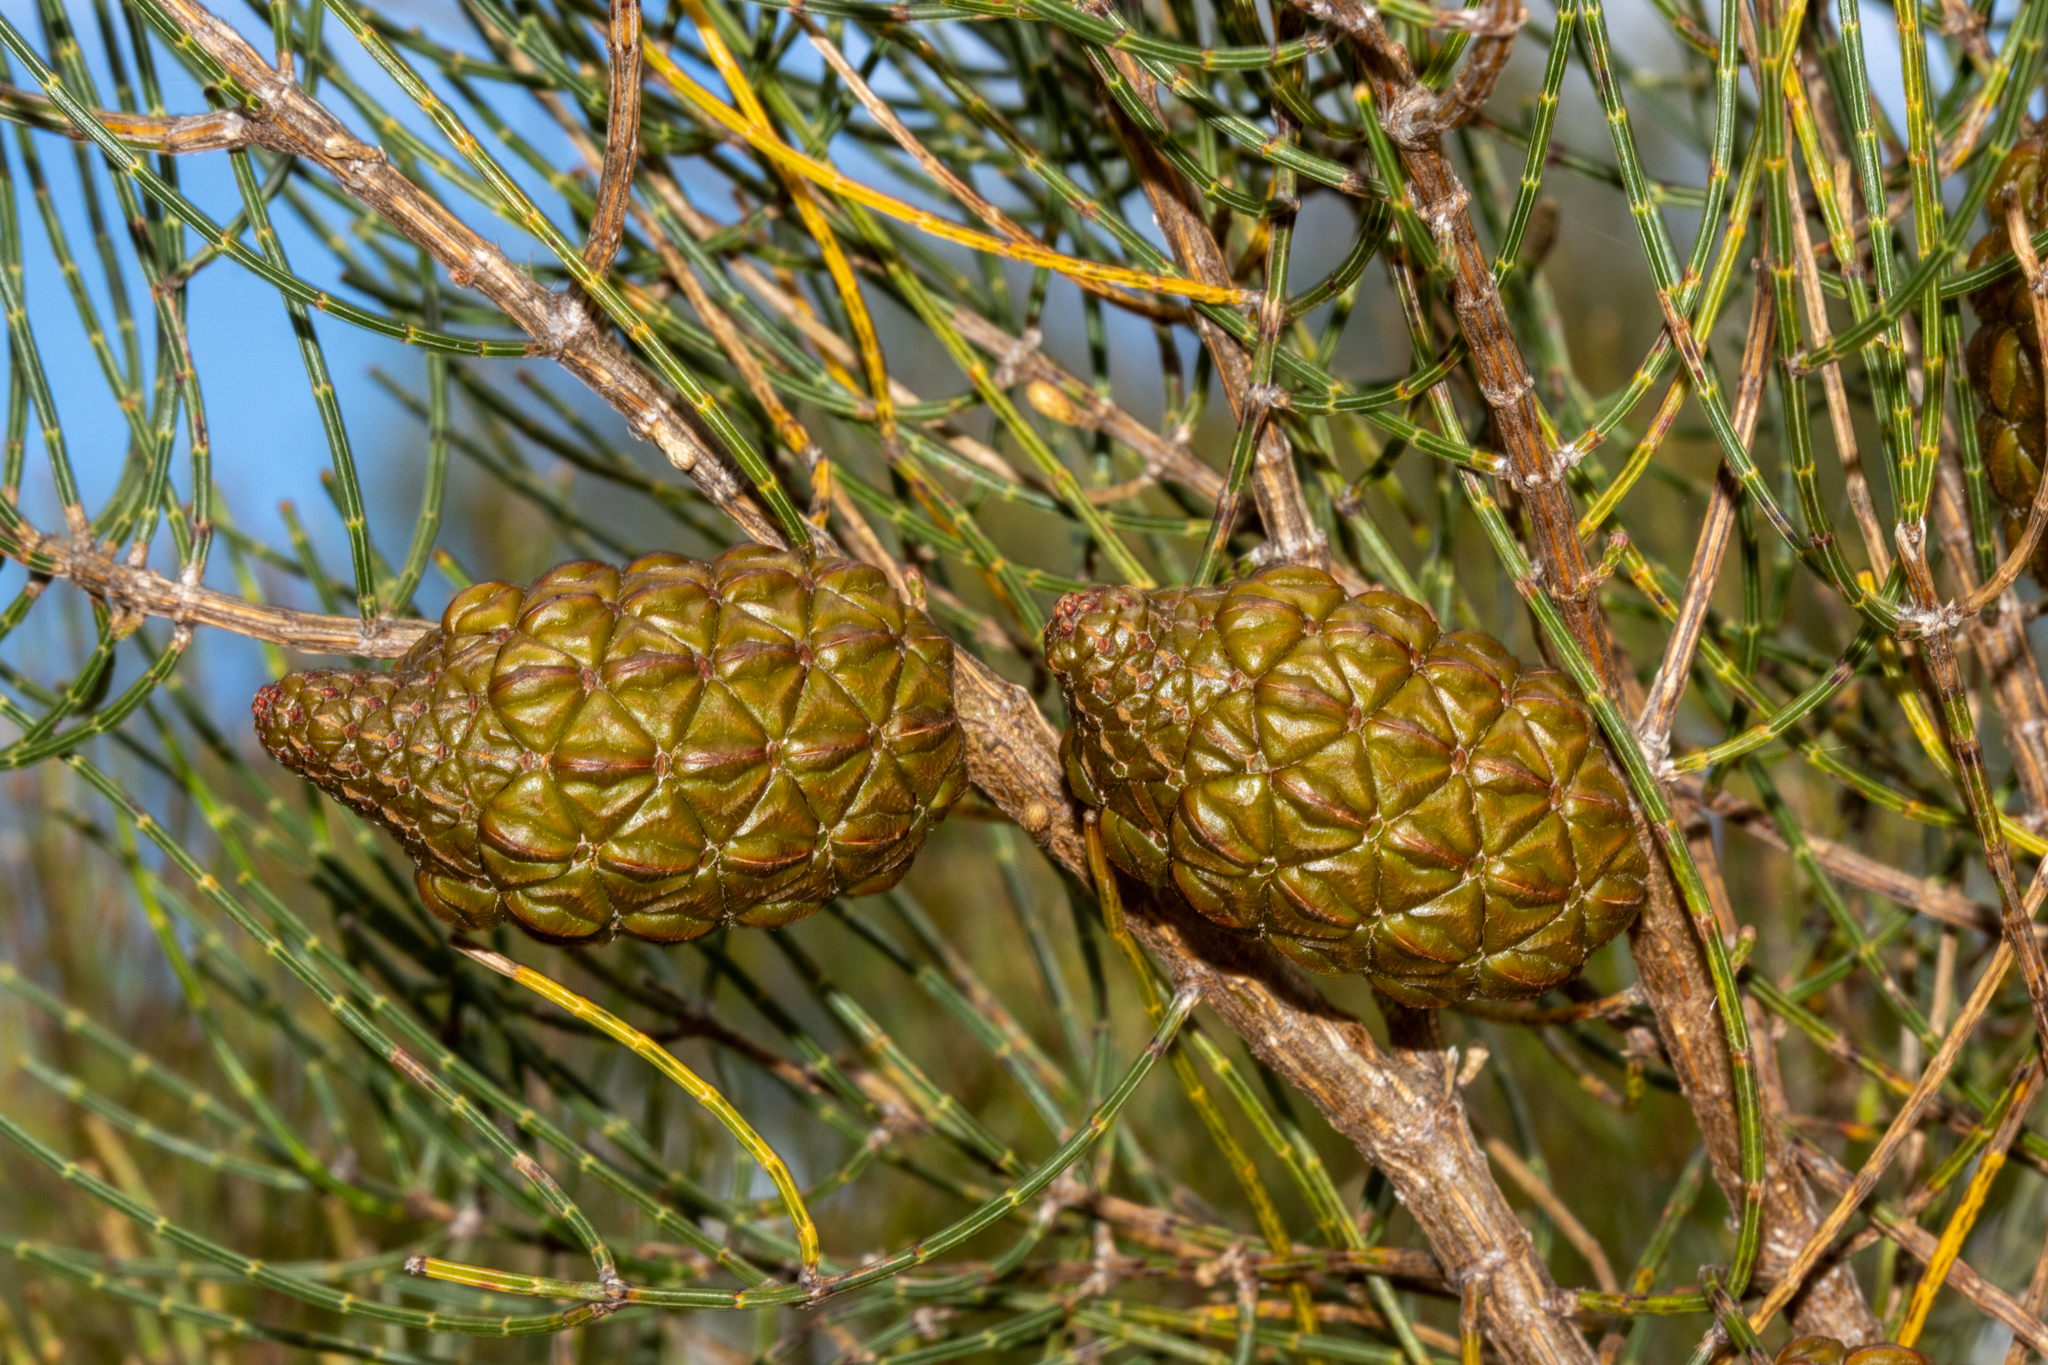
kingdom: Plantae
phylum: Tracheophyta
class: Magnoliopsida
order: Fagales
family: Casuarinaceae
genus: Allocasuarina
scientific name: Allocasuarina muelleriana
